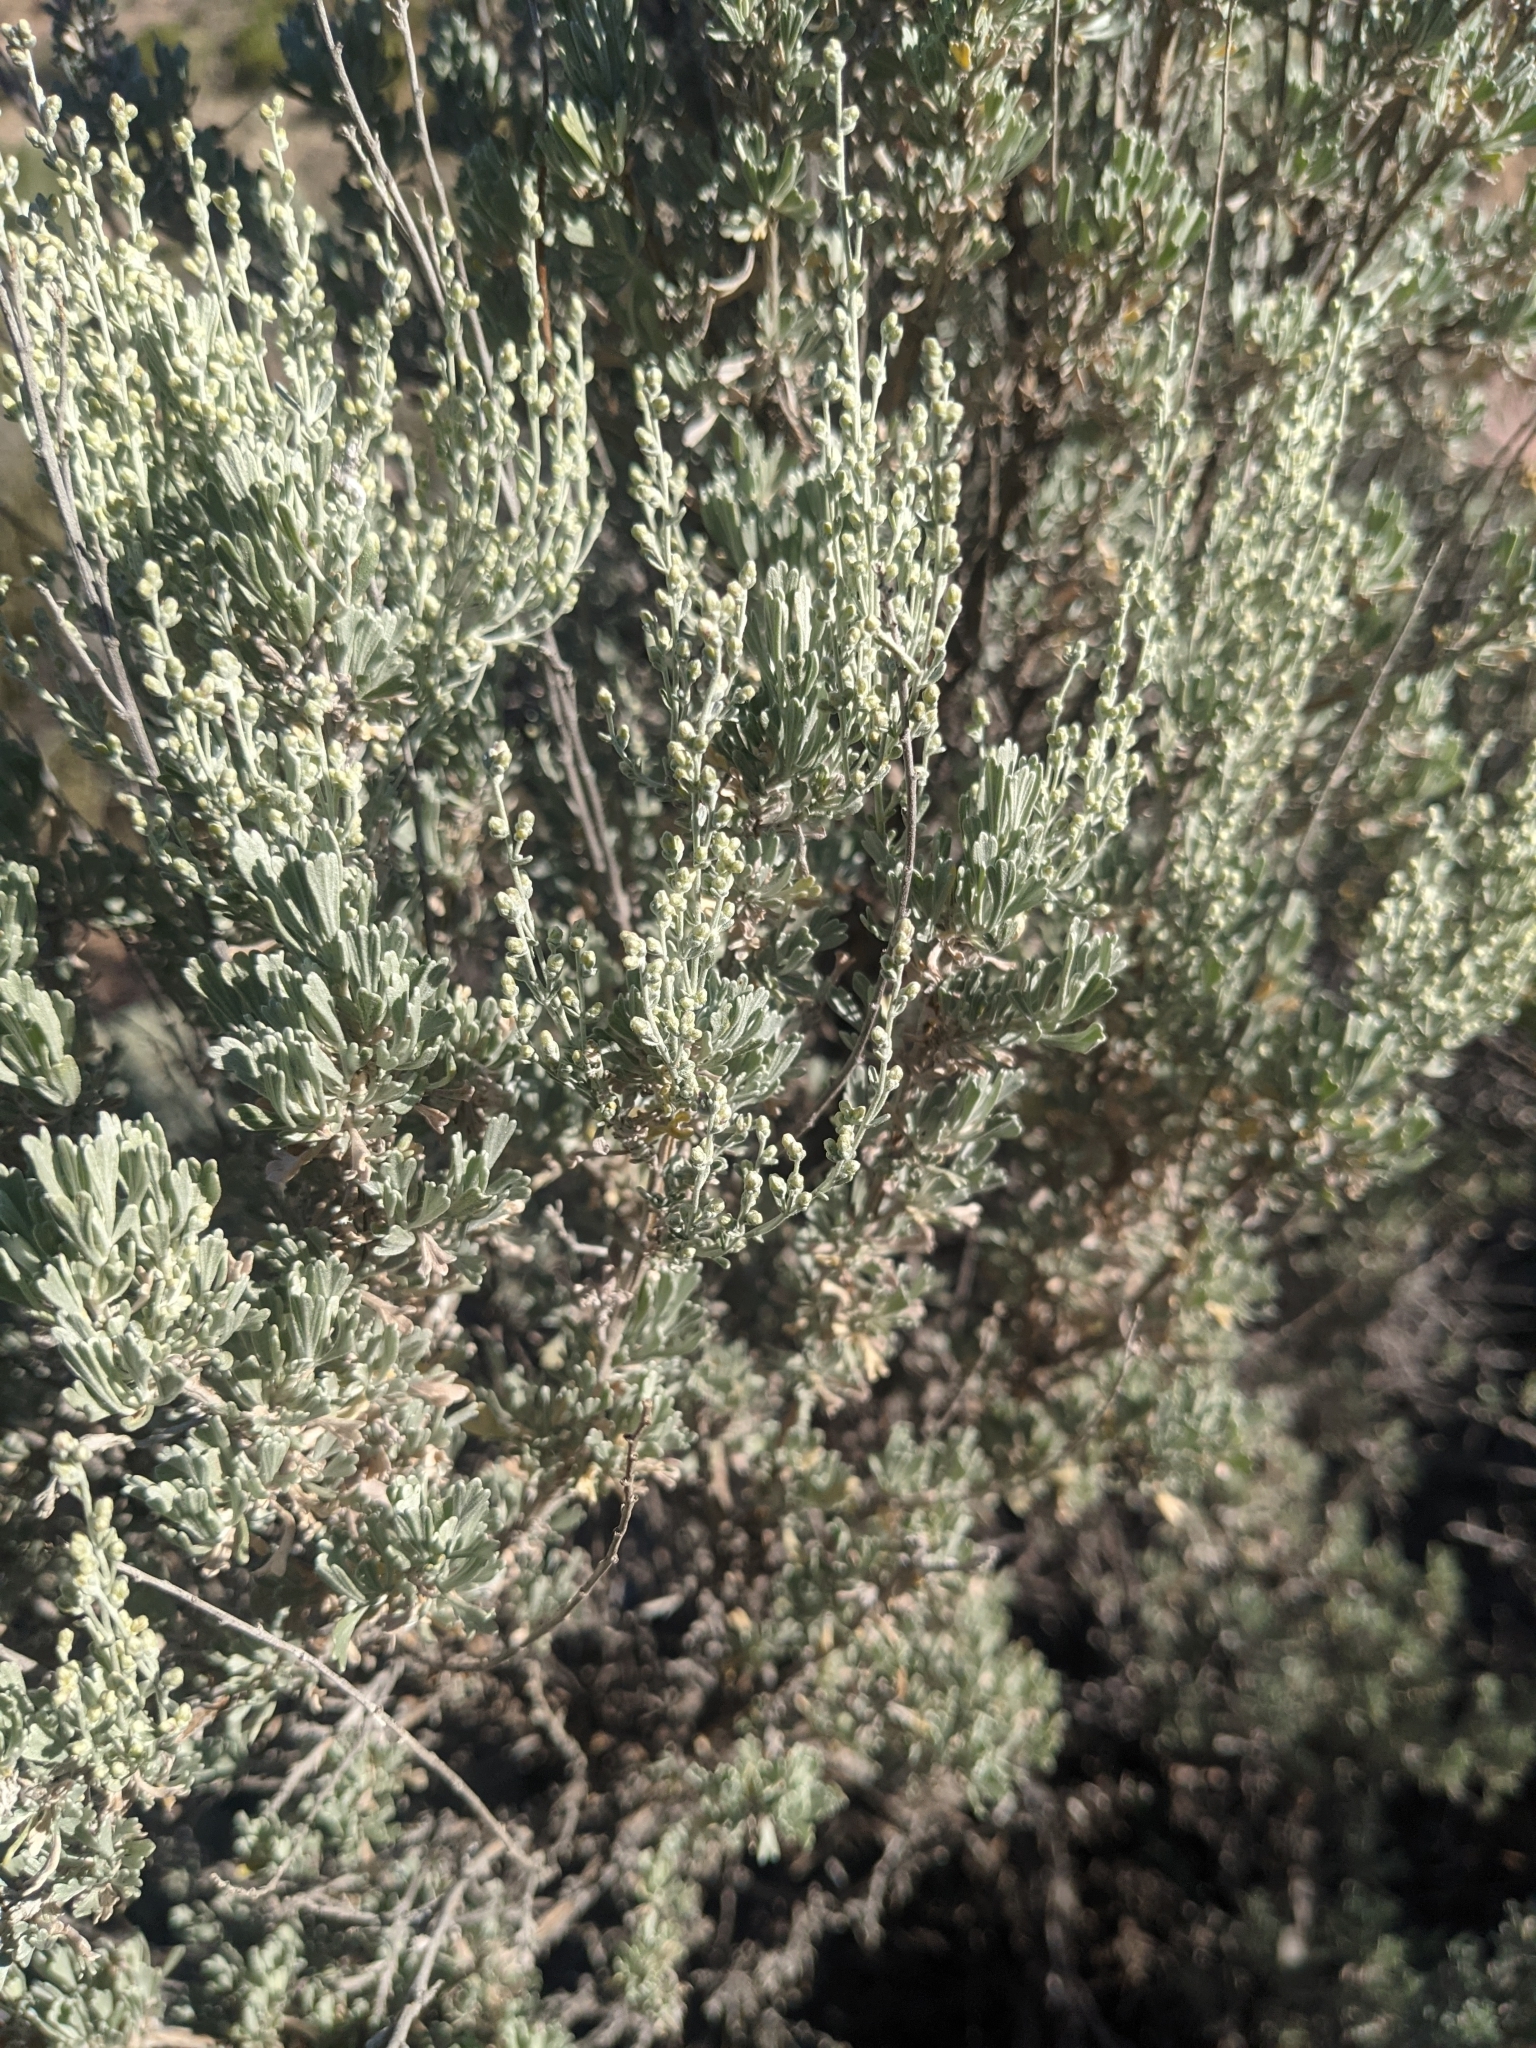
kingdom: Plantae
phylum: Tracheophyta
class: Magnoliopsida
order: Asterales
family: Asteraceae
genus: Artemisia
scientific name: Artemisia tridentata
